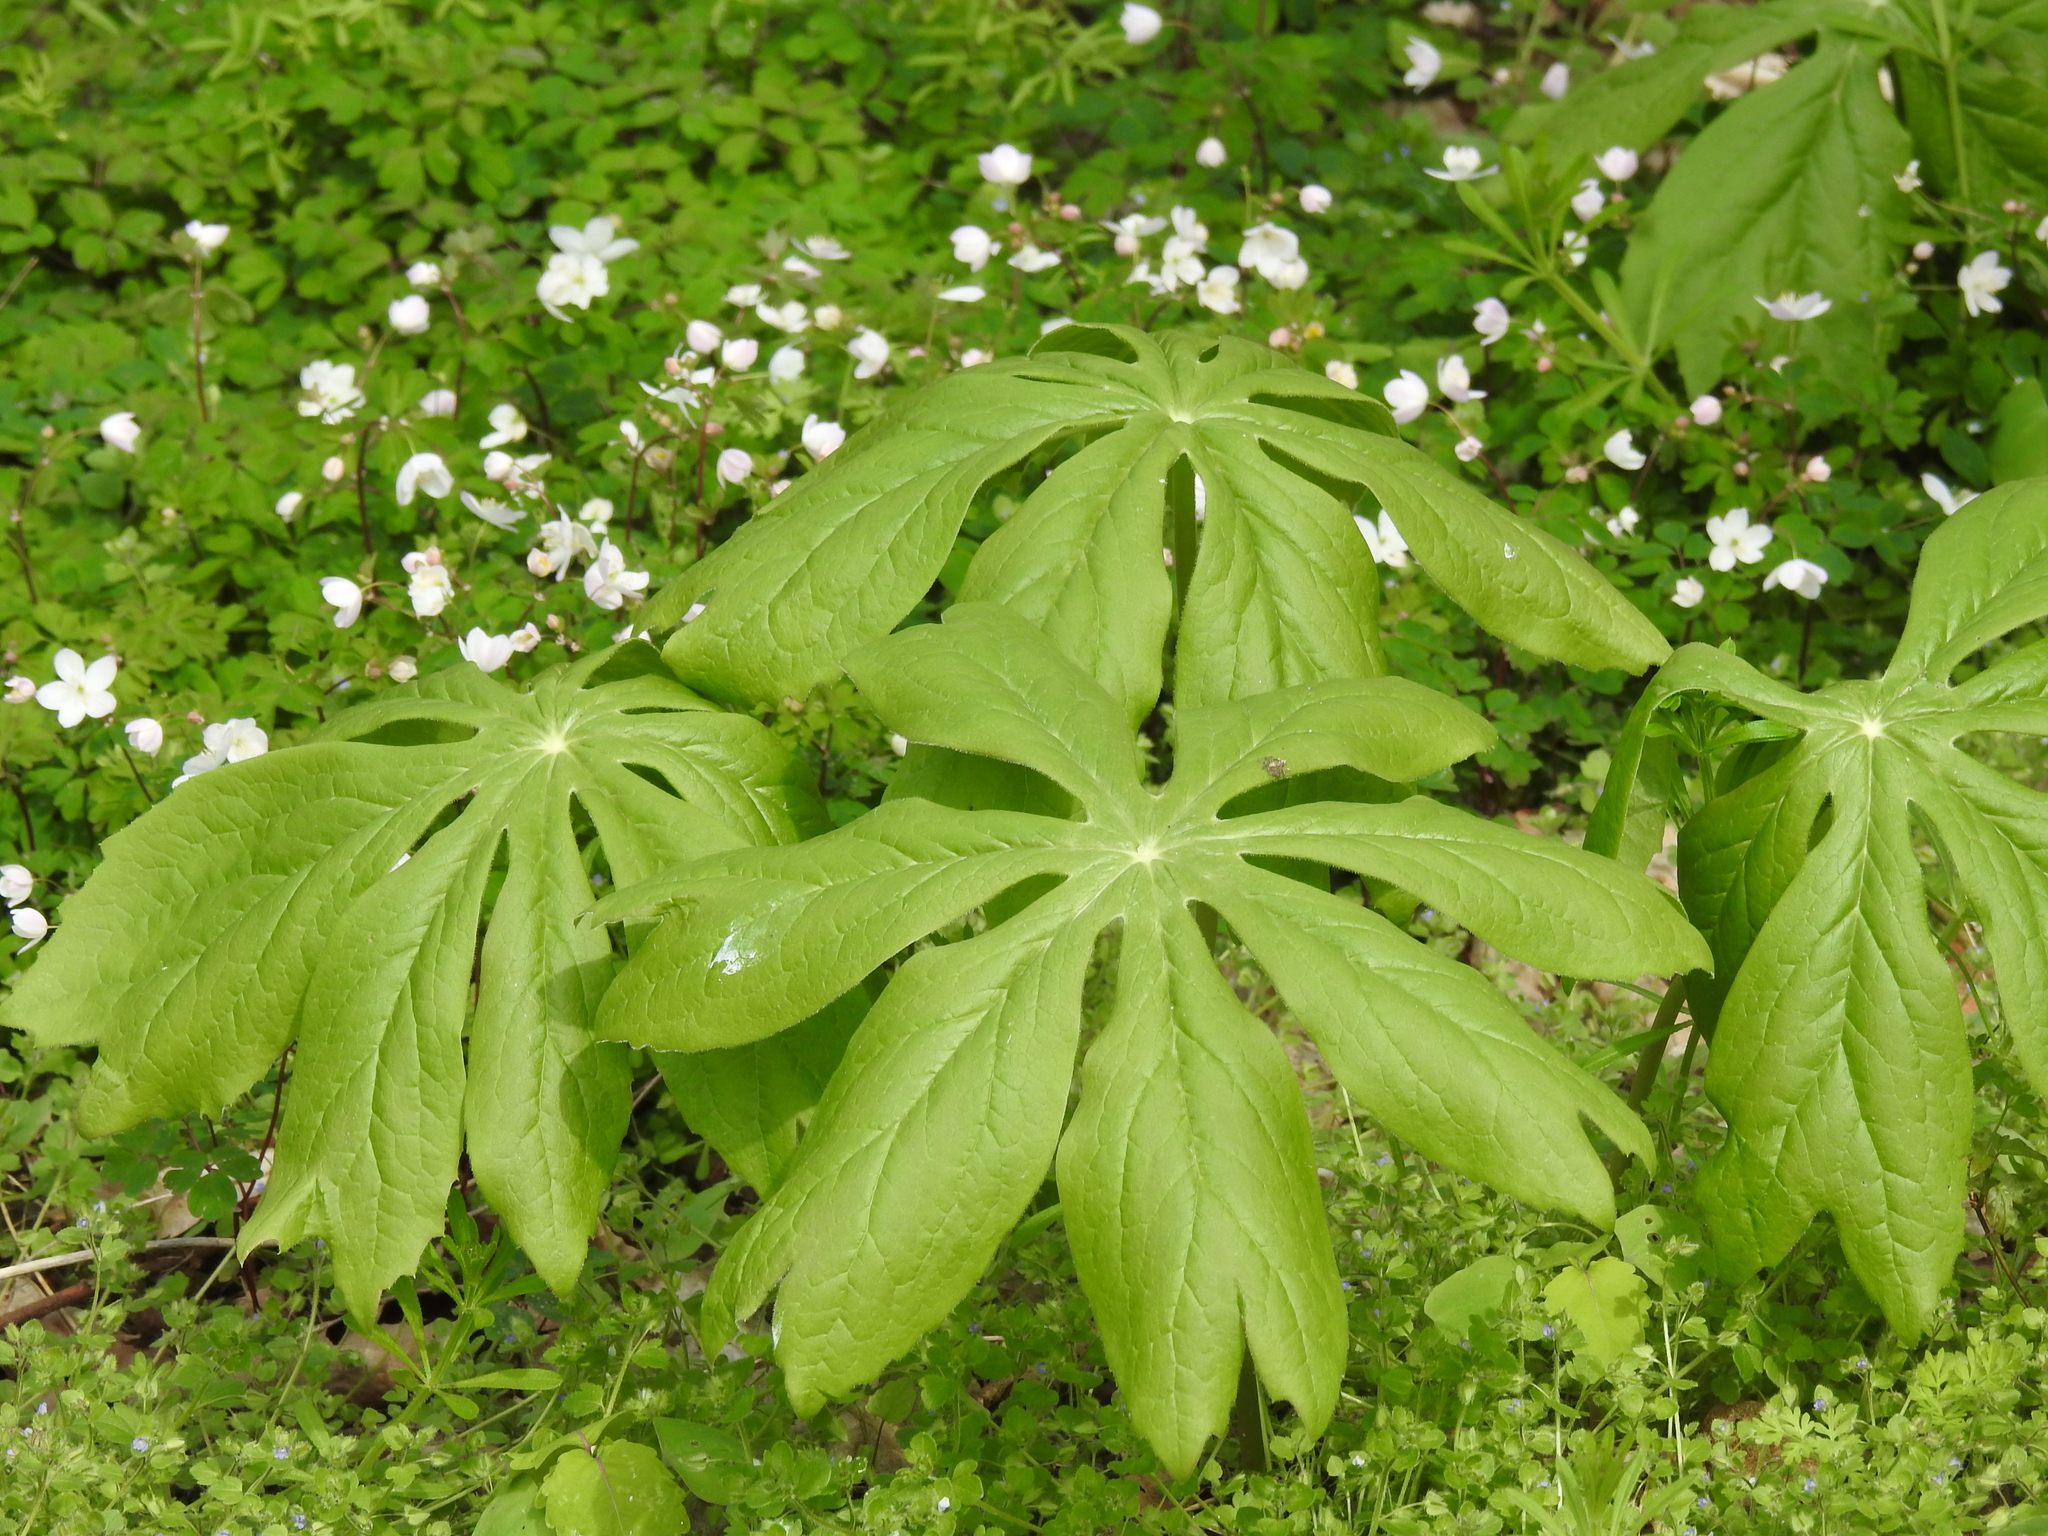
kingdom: Plantae
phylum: Tracheophyta
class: Magnoliopsida
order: Ranunculales
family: Berberidaceae
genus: Podophyllum
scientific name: Podophyllum peltatum
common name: Wild mandrake
